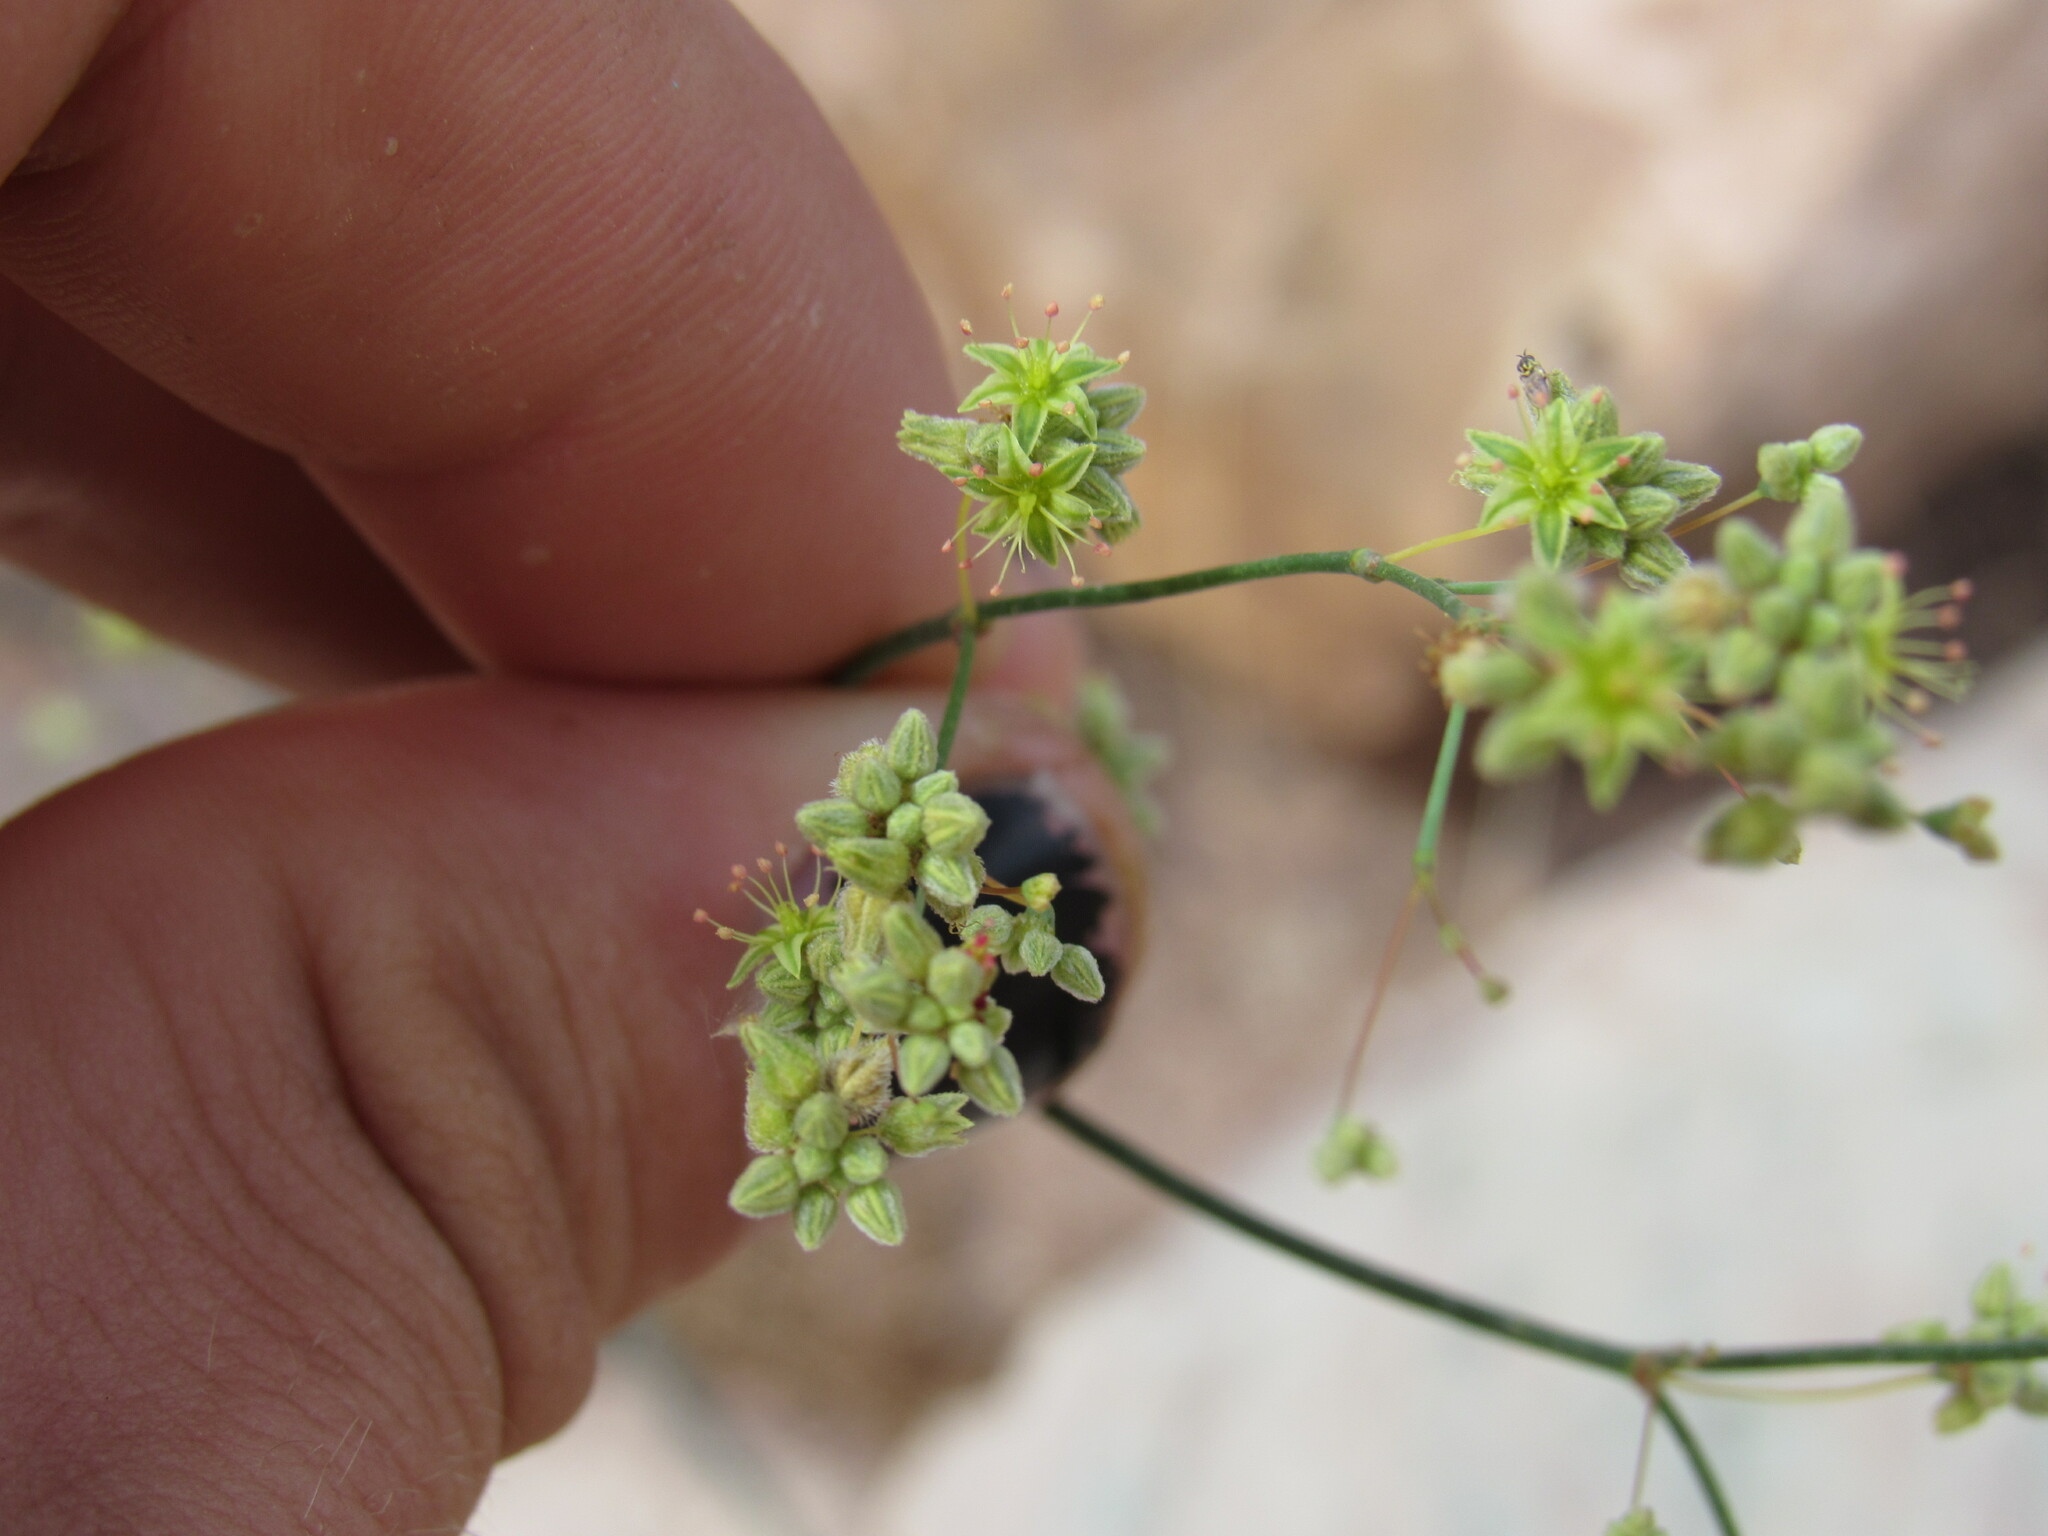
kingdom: Plantae
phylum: Tracheophyta
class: Magnoliopsida
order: Caryophyllales
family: Polygonaceae
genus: Eriogonum
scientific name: Eriogonum inflatum
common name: Desert trumpet
